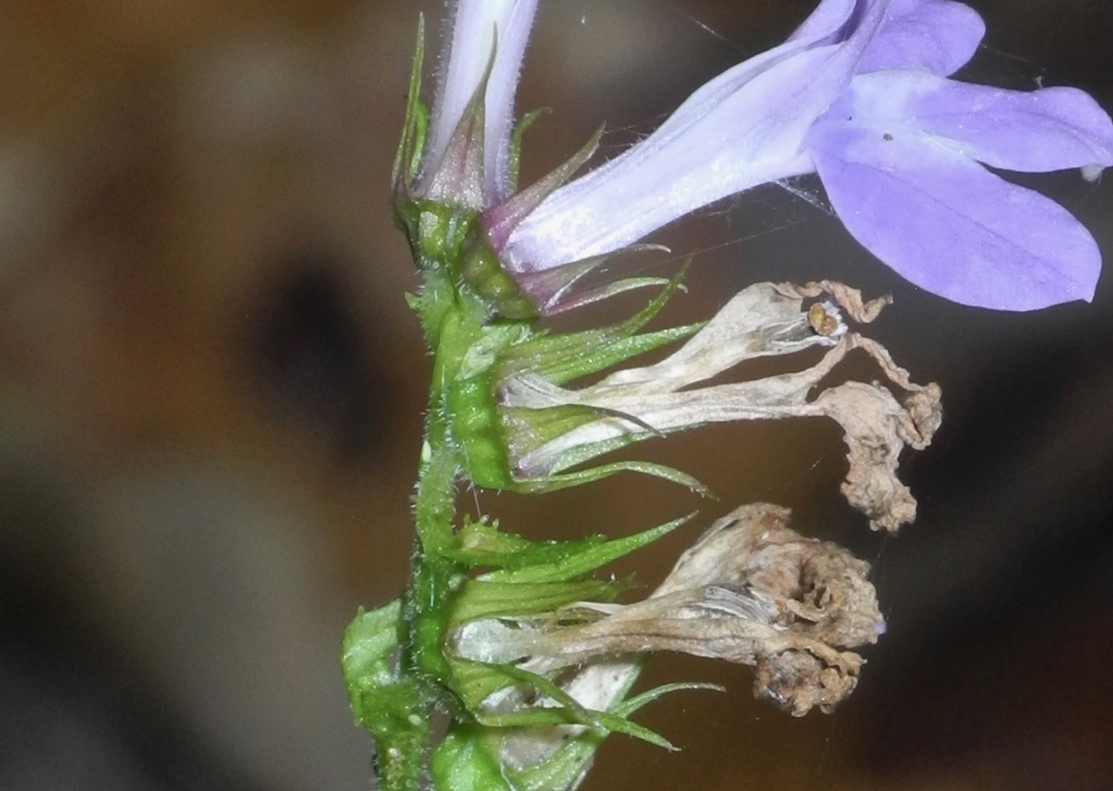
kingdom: Plantae
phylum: Tracheophyta
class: Magnoliopsida
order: Asterales
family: Campanulaceae
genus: Lobelia
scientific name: Lobelia puberula
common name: Purple dewdrop
